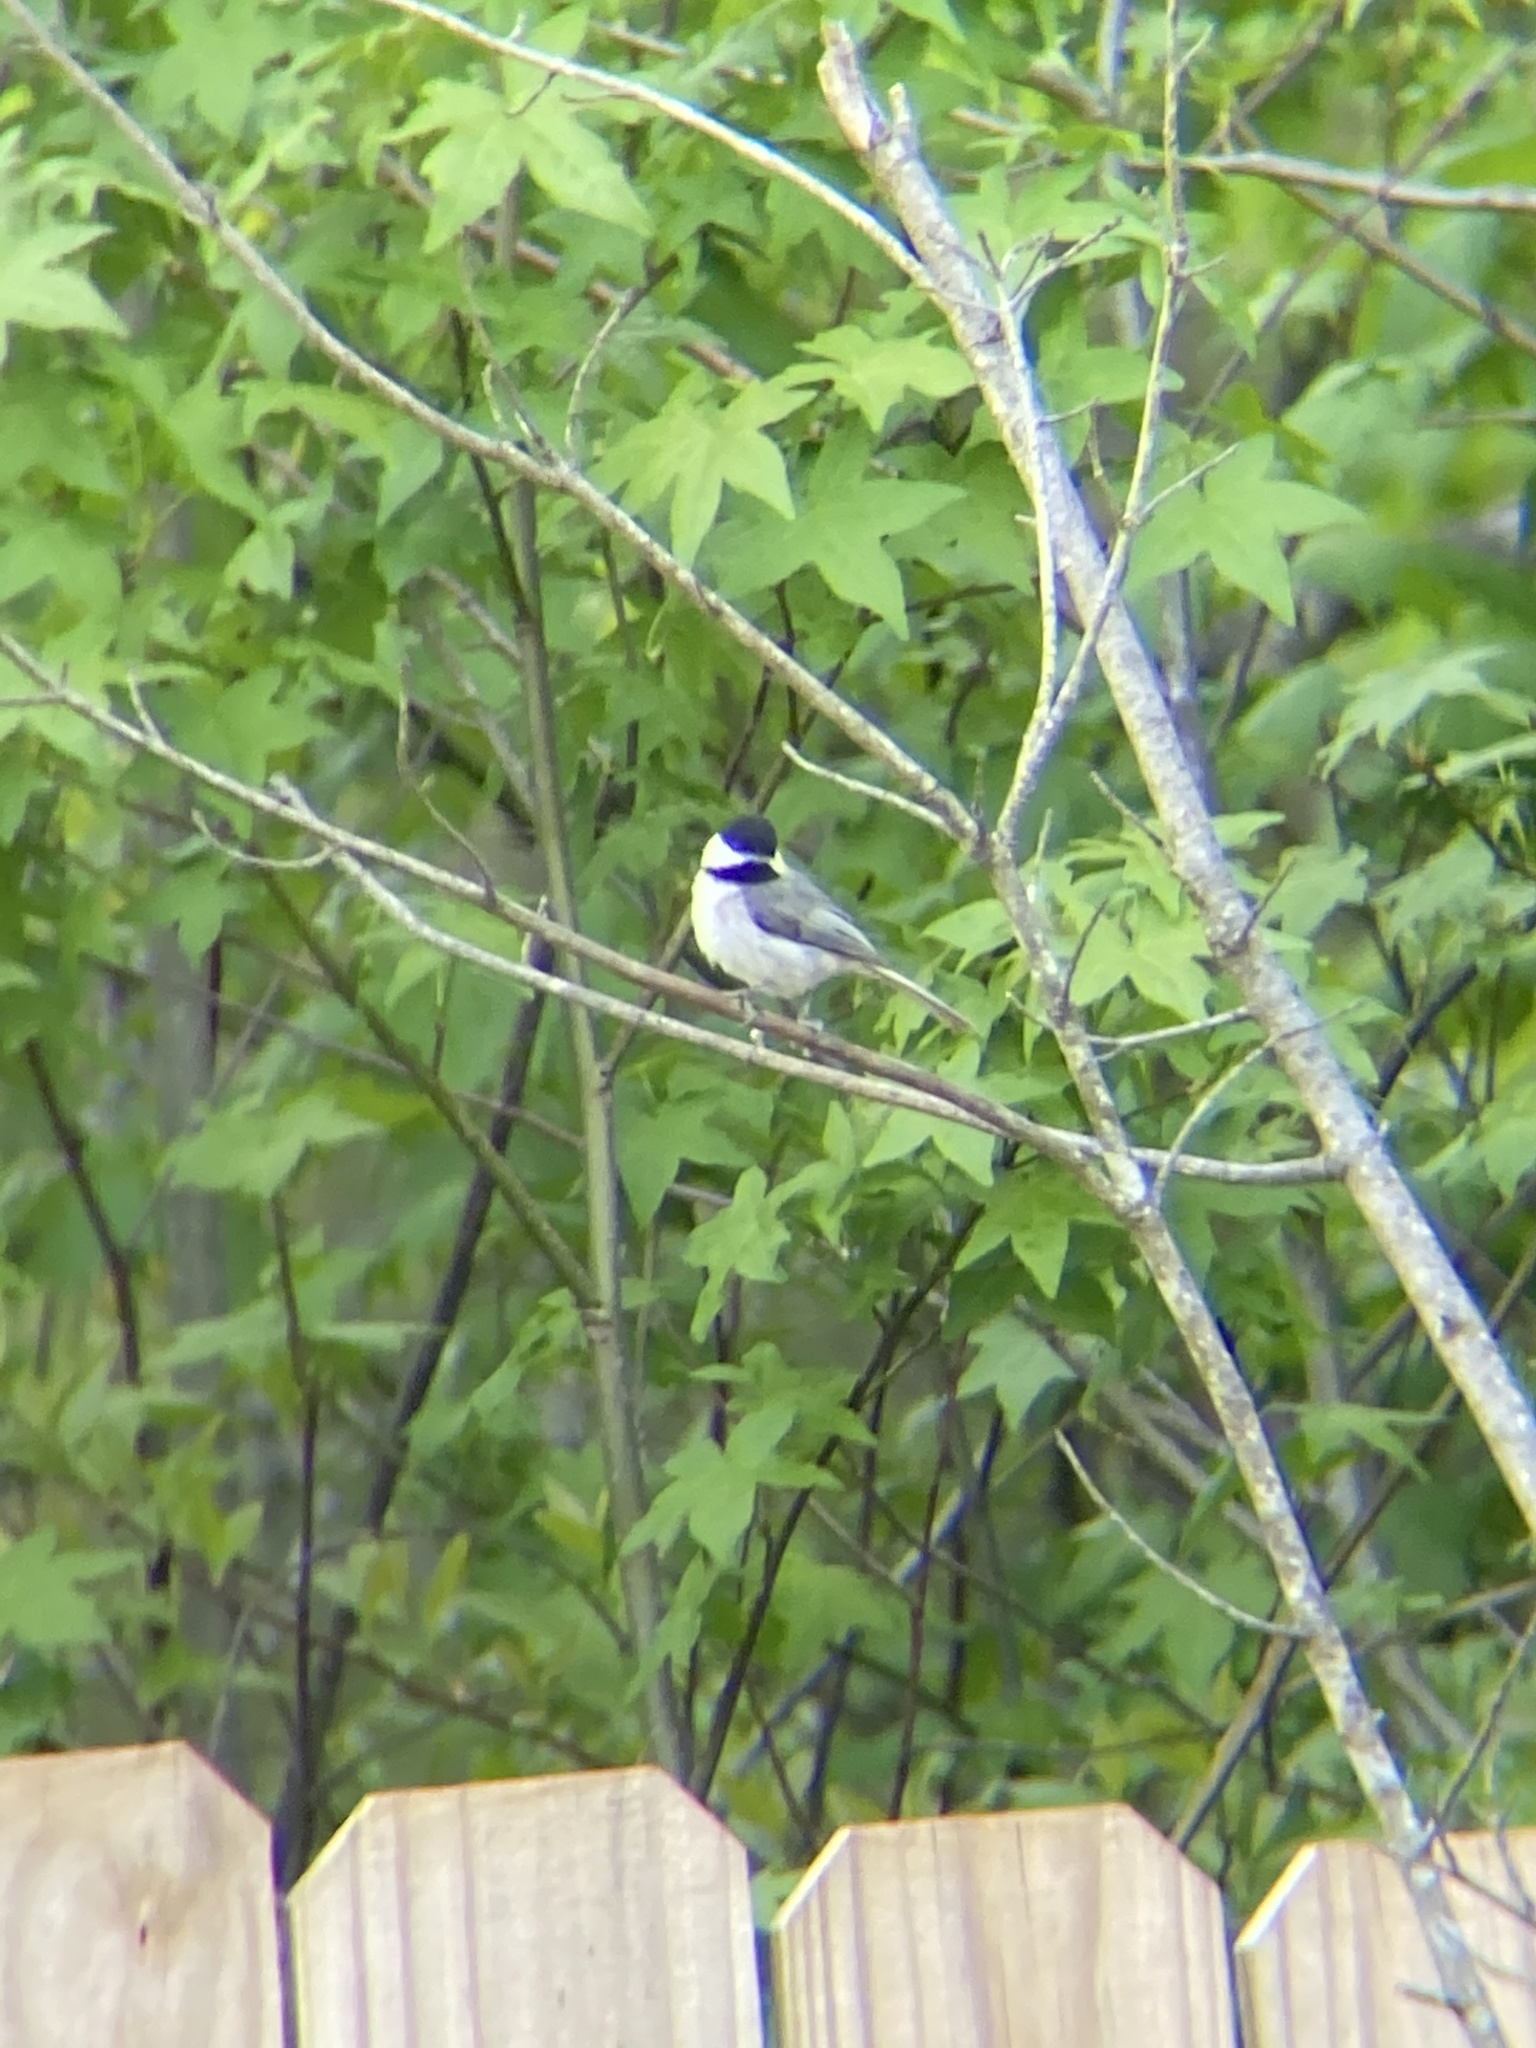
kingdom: Animalia
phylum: Chordata
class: Aves
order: Passeriformes
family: Paridae
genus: Poecile
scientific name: Poecile carolinensis
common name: Carolina chickadee
